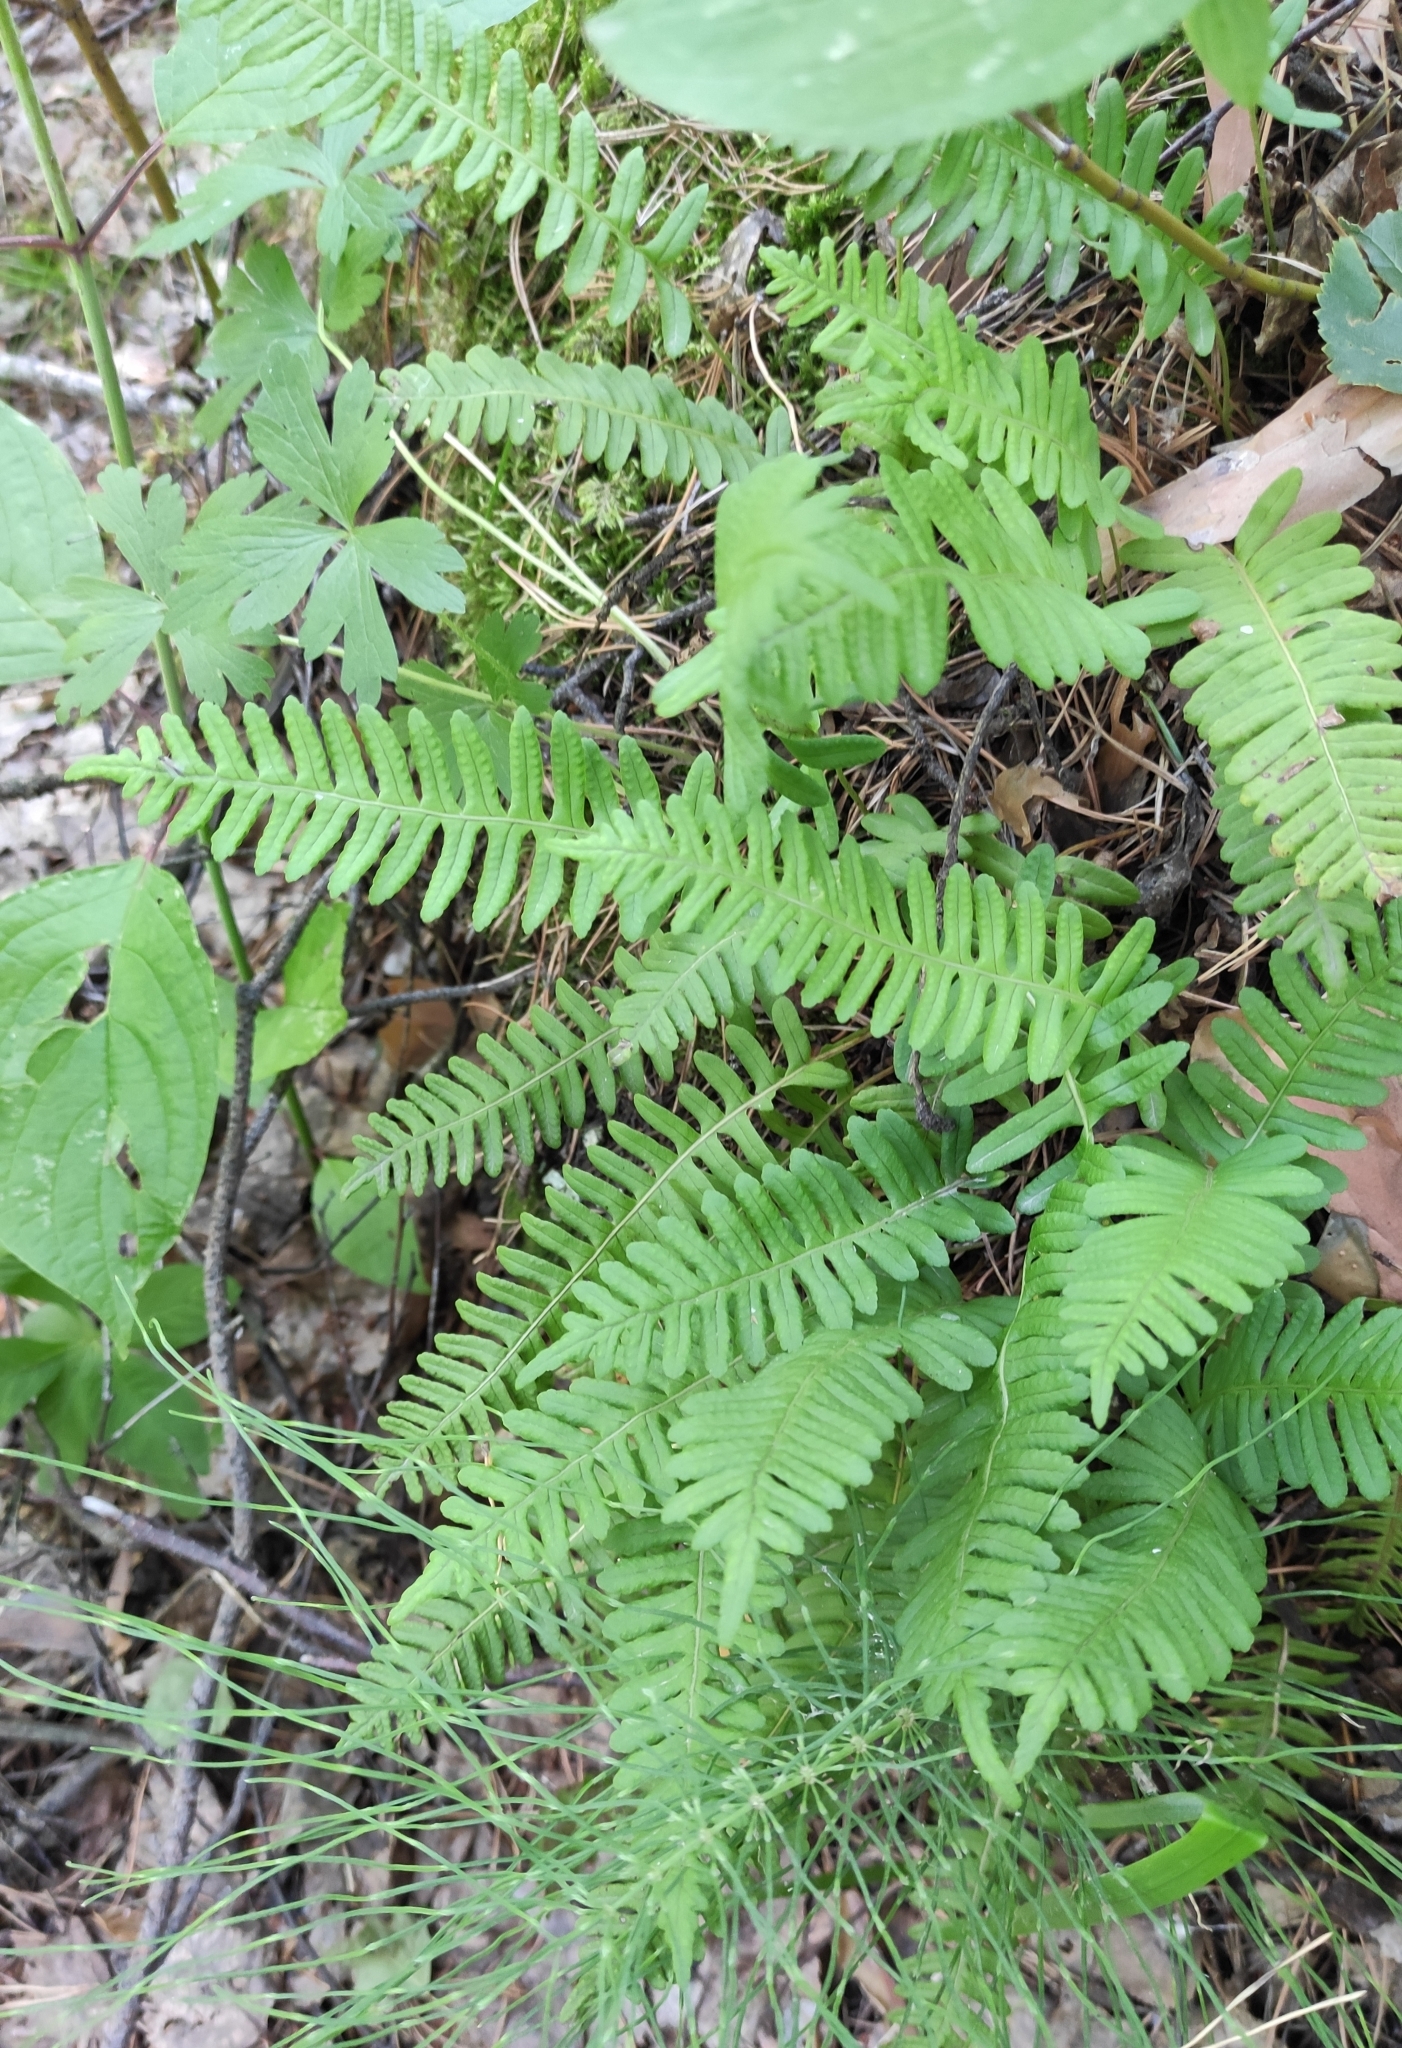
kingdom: Plantae
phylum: Tracheophyta
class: Polypodiopsida
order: Polypodiales
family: Polypodiaceae
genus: Polypodium
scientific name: Polypodium sibiricum
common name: Siberian polypody
